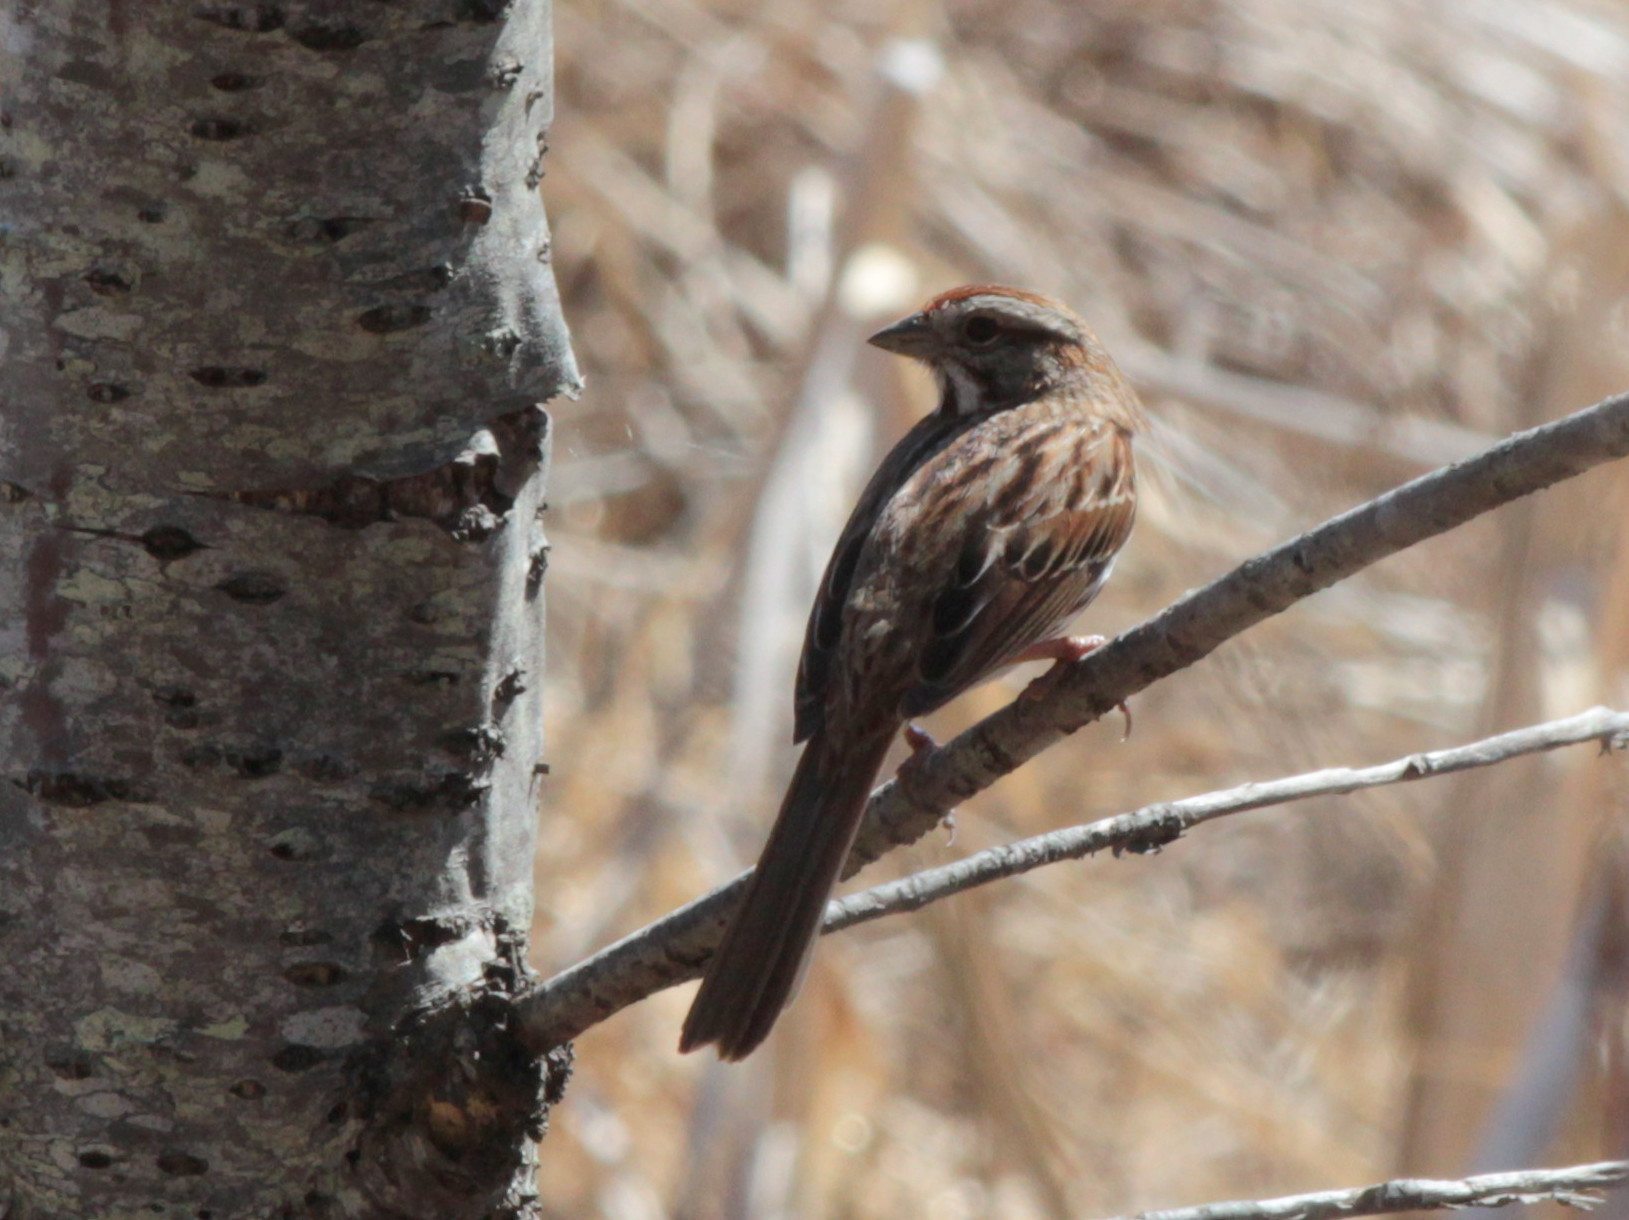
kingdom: Animalia
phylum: Chordata
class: Aves
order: Passeriformes
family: Passerellidae
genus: Melospiza
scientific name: Melospiza melodia
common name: Song sparrow
